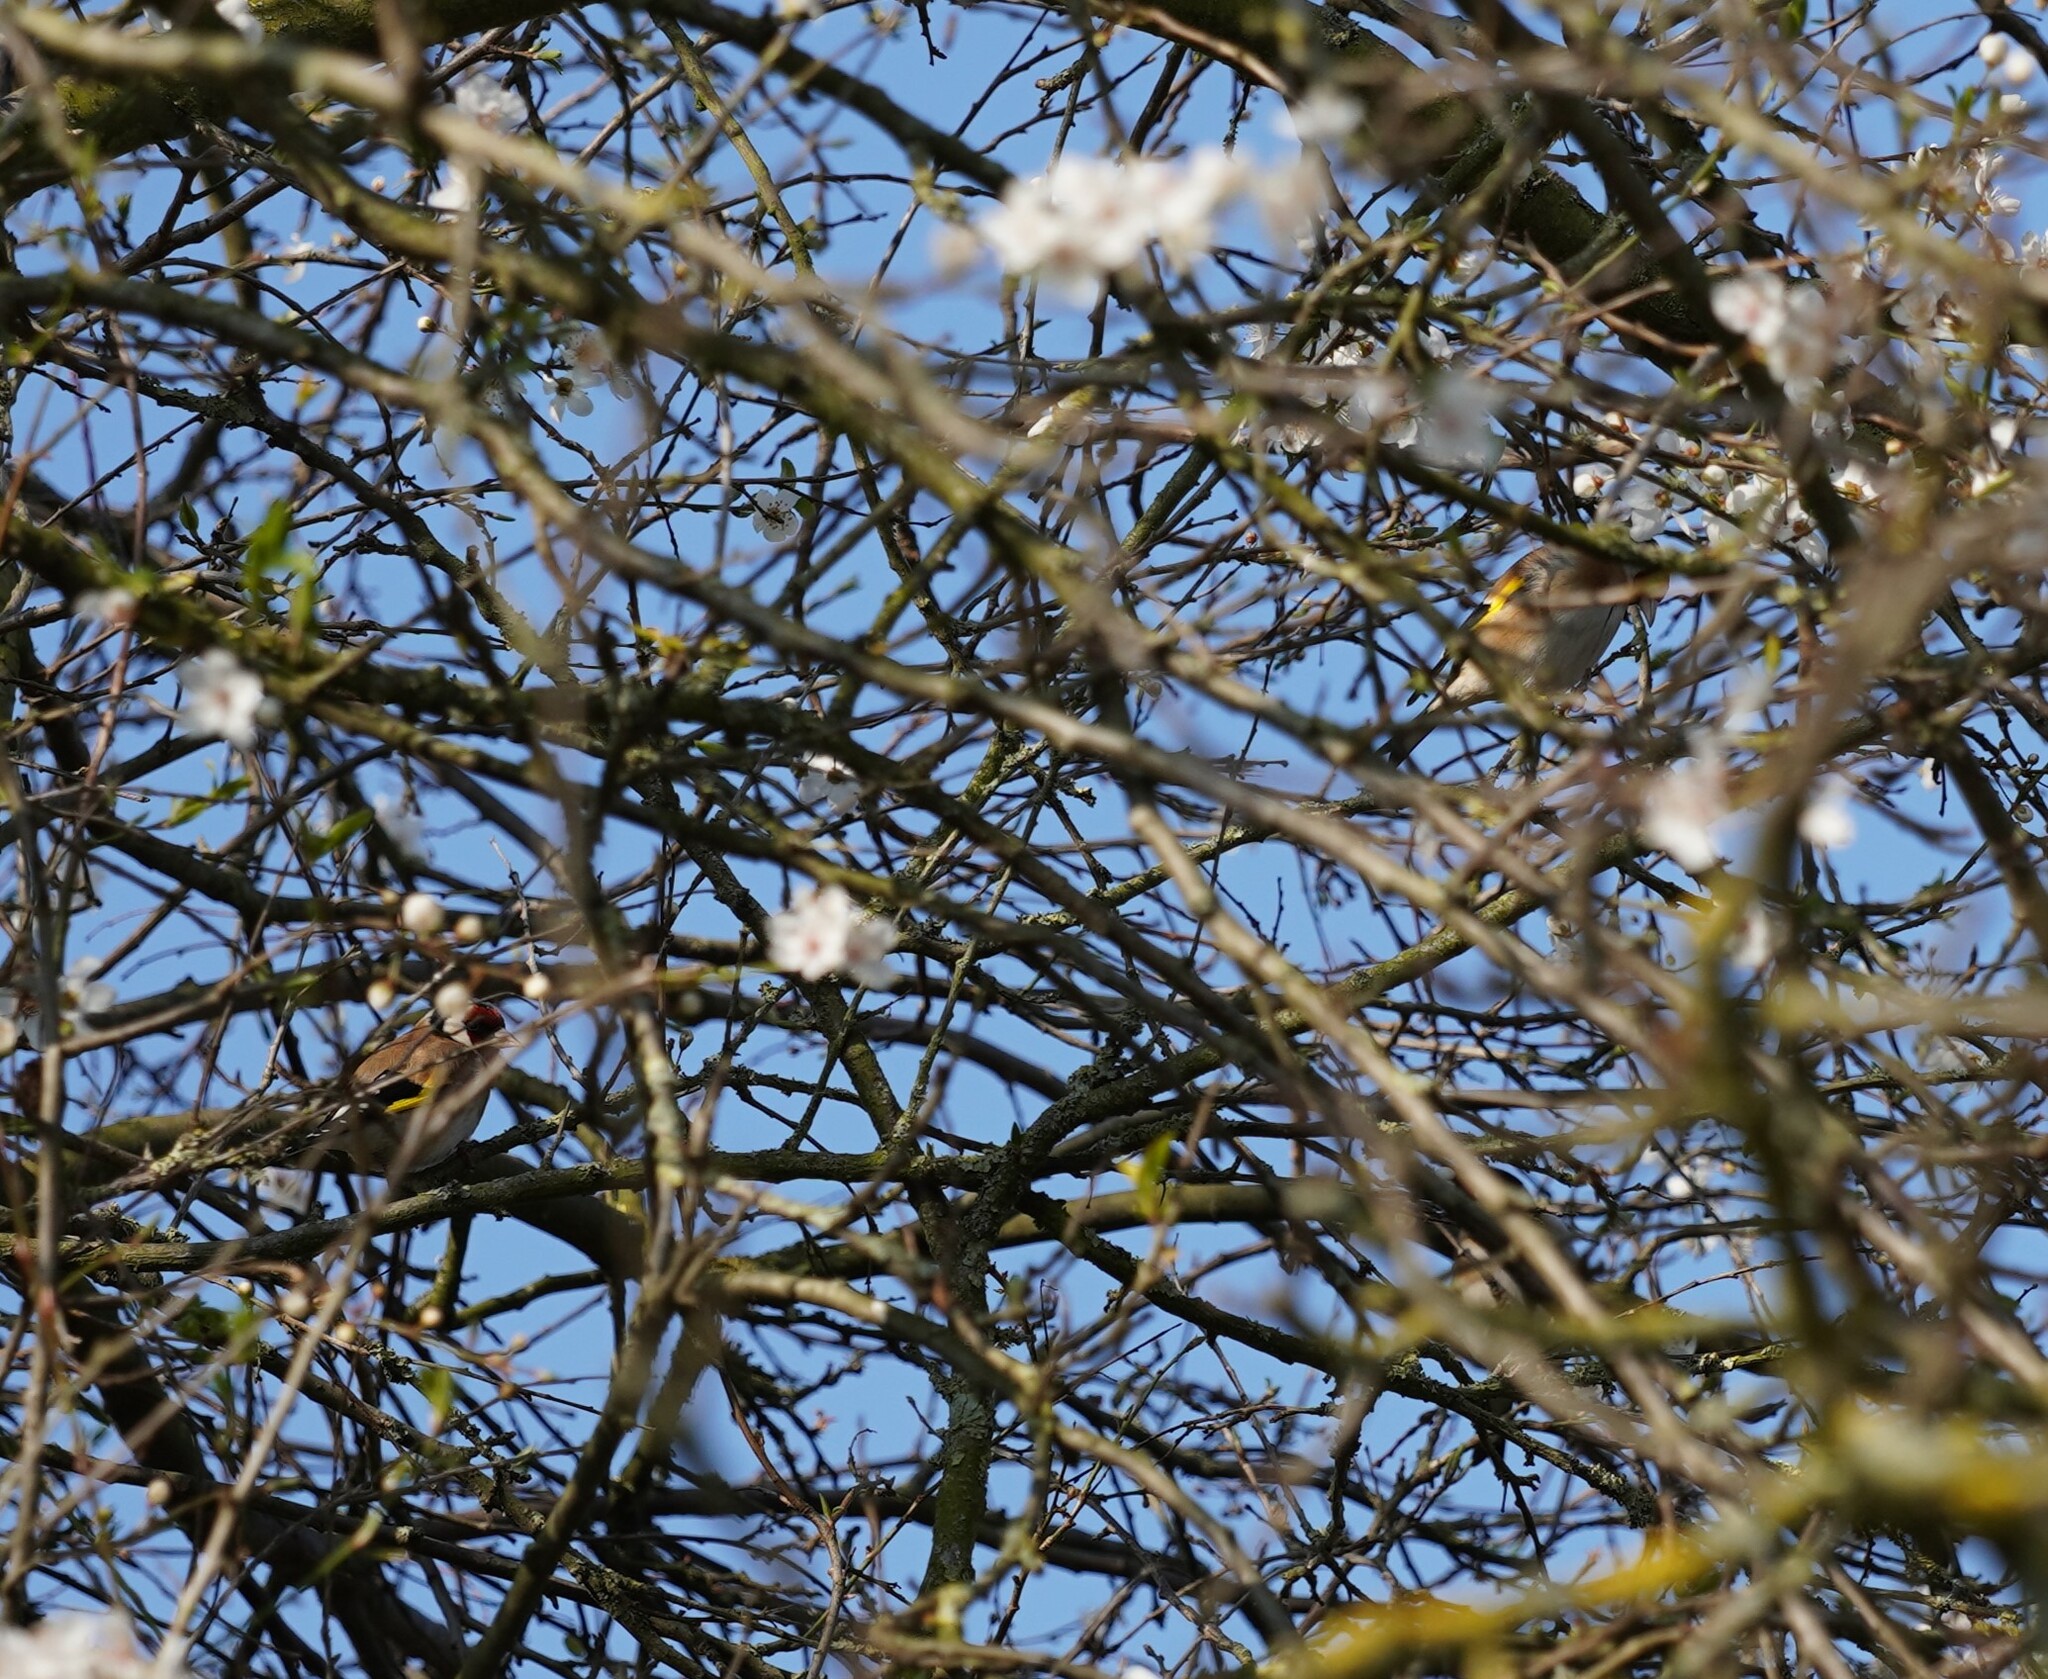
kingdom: Animalia
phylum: Chordata
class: Aves
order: Passeriformes
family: Fringillidae
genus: Carduelis
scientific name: Carduelis carduelis
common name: European goldfinch
